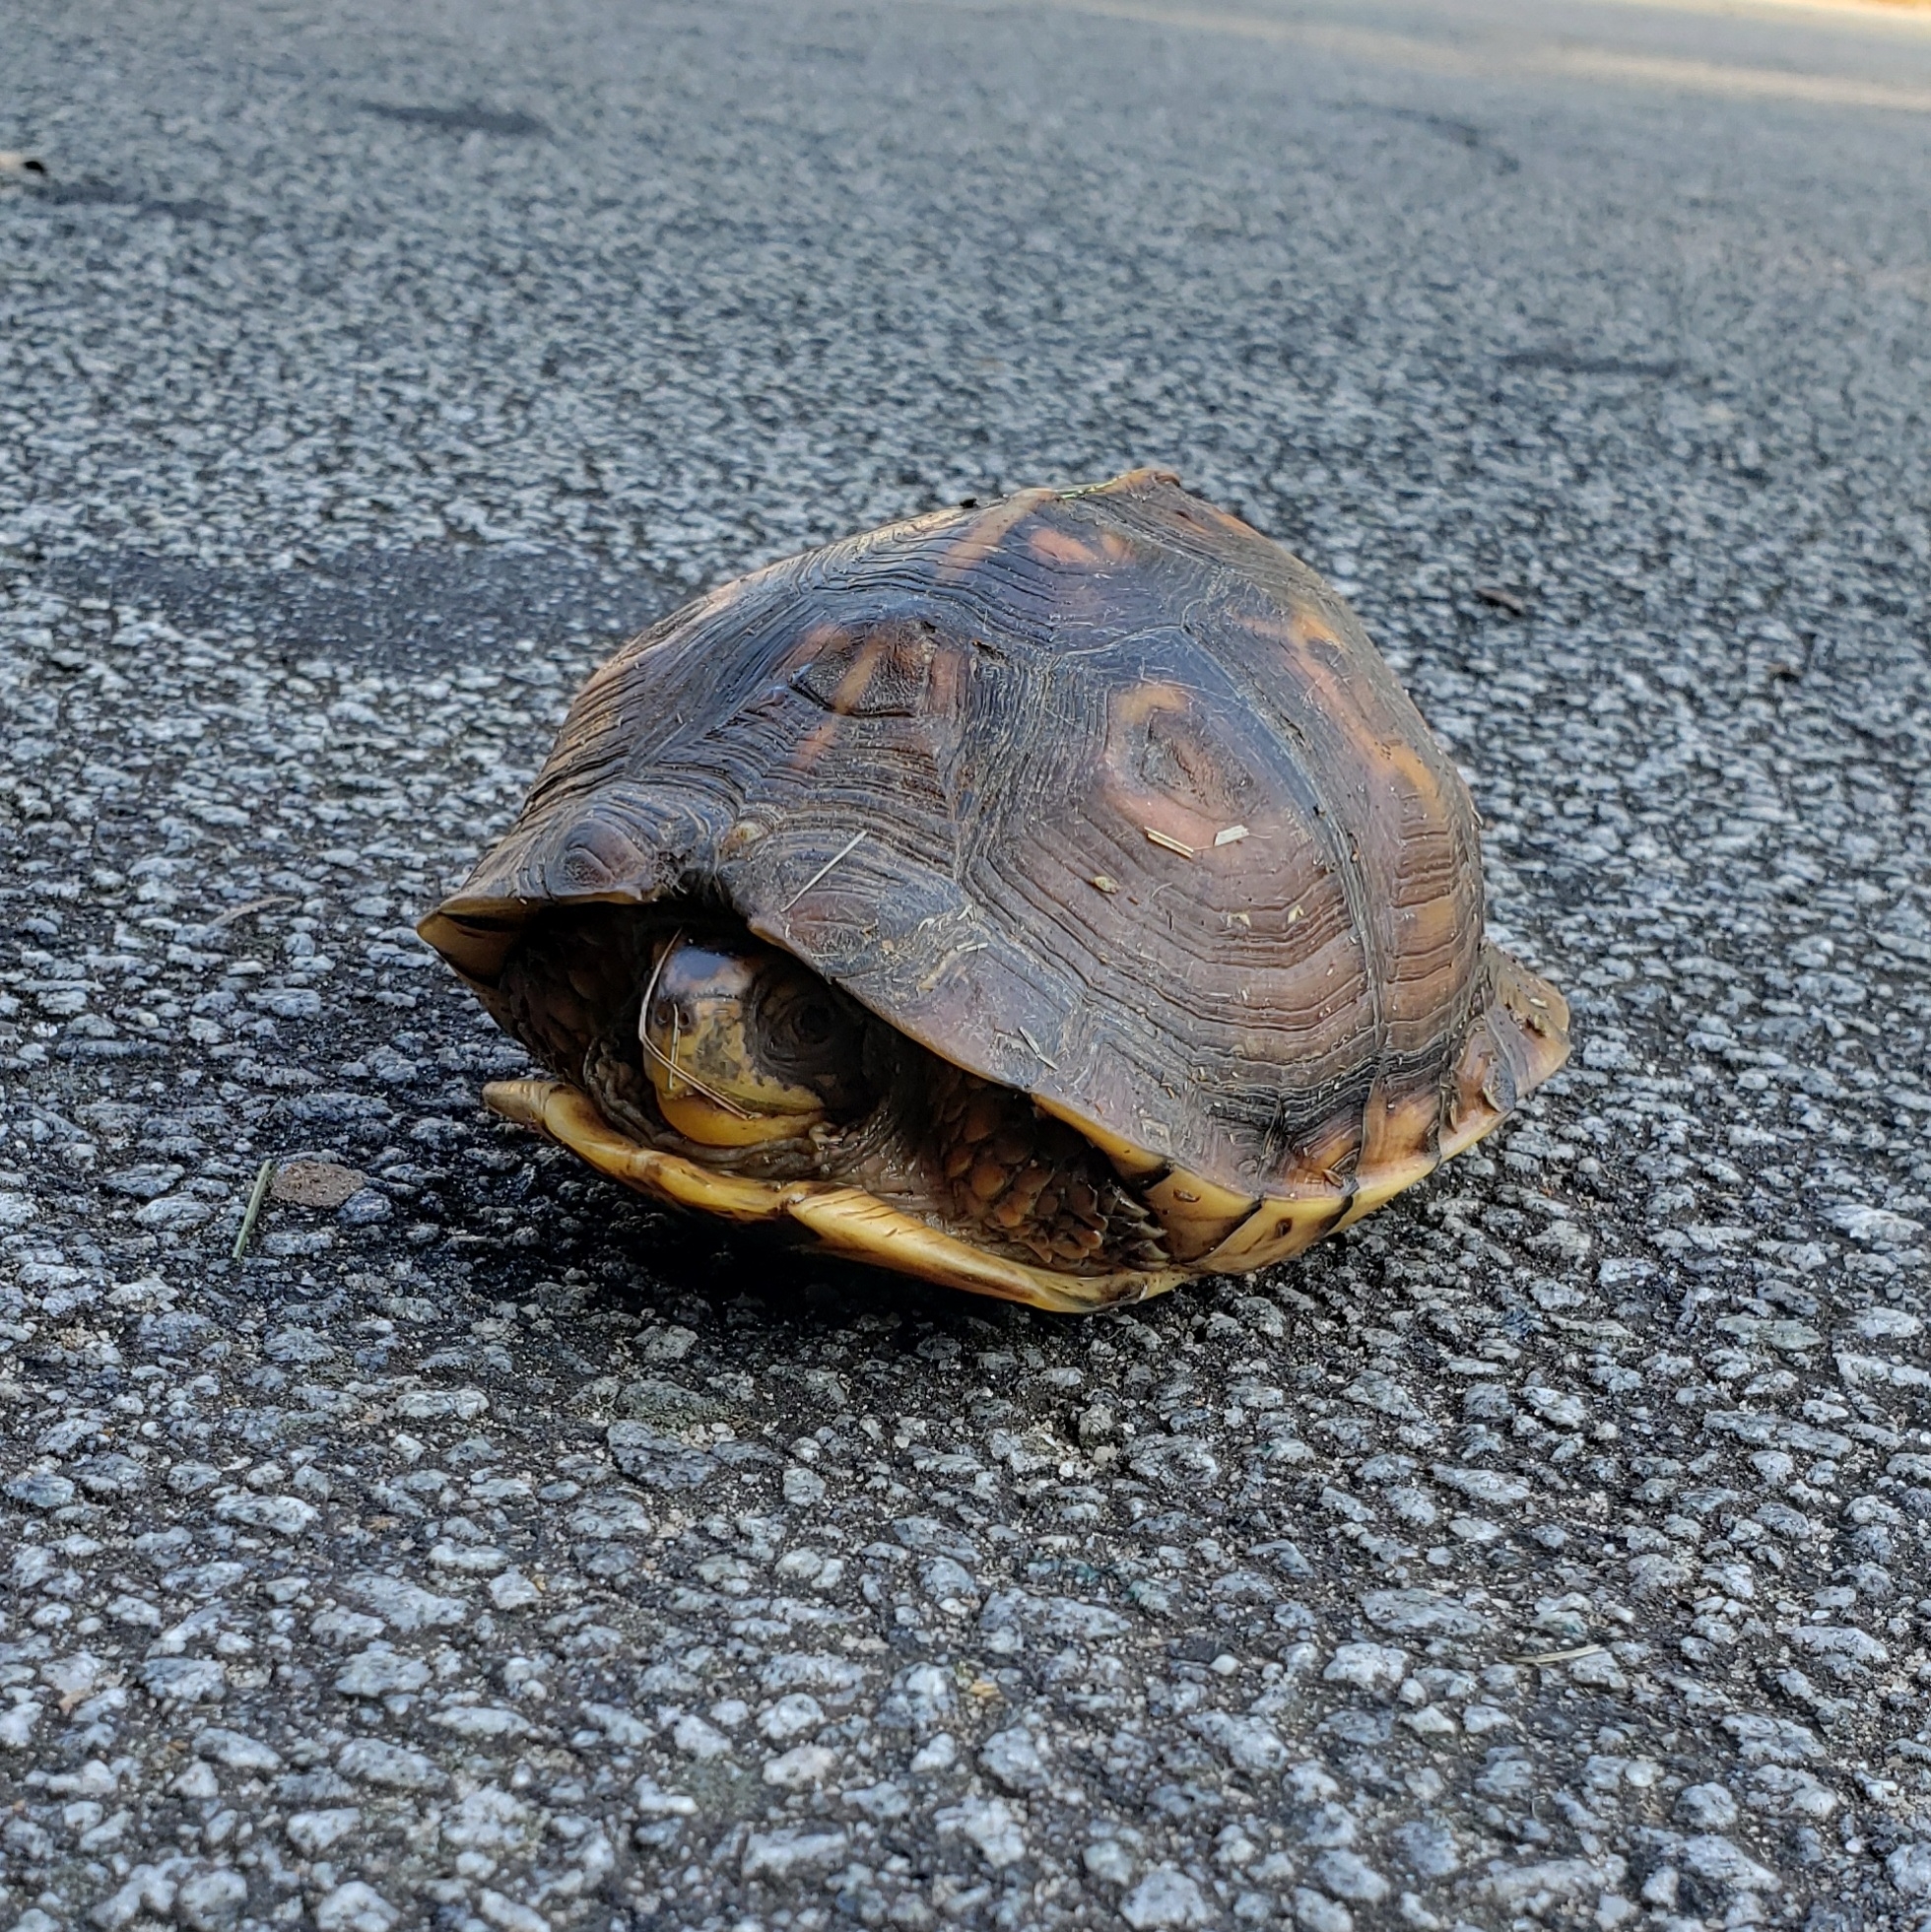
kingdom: Animalia
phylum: Chordata
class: Testudines
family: Emydidae
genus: Terrapene
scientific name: Terrapene carolina
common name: Common box turtle
